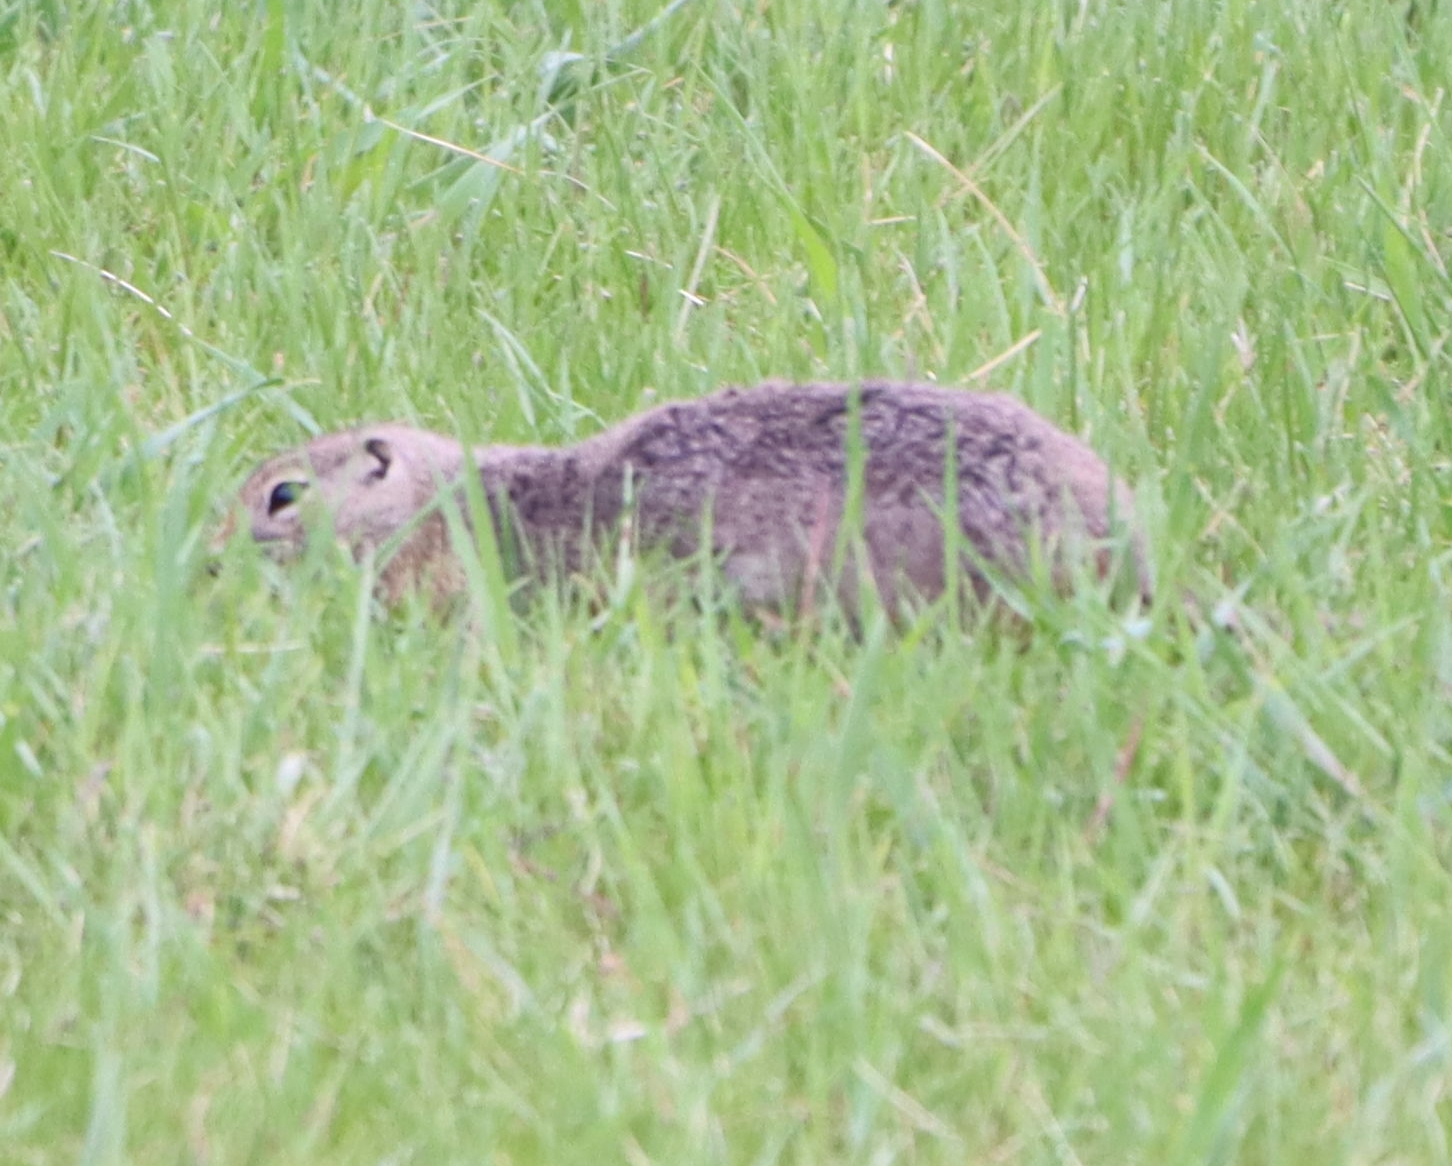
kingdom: Animalia
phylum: Chordata
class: Mammalia
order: Rodentia
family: Sciuridae
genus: Urocitellus
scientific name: Urocitellus richardsonii
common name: Richardson's ground squirrel
